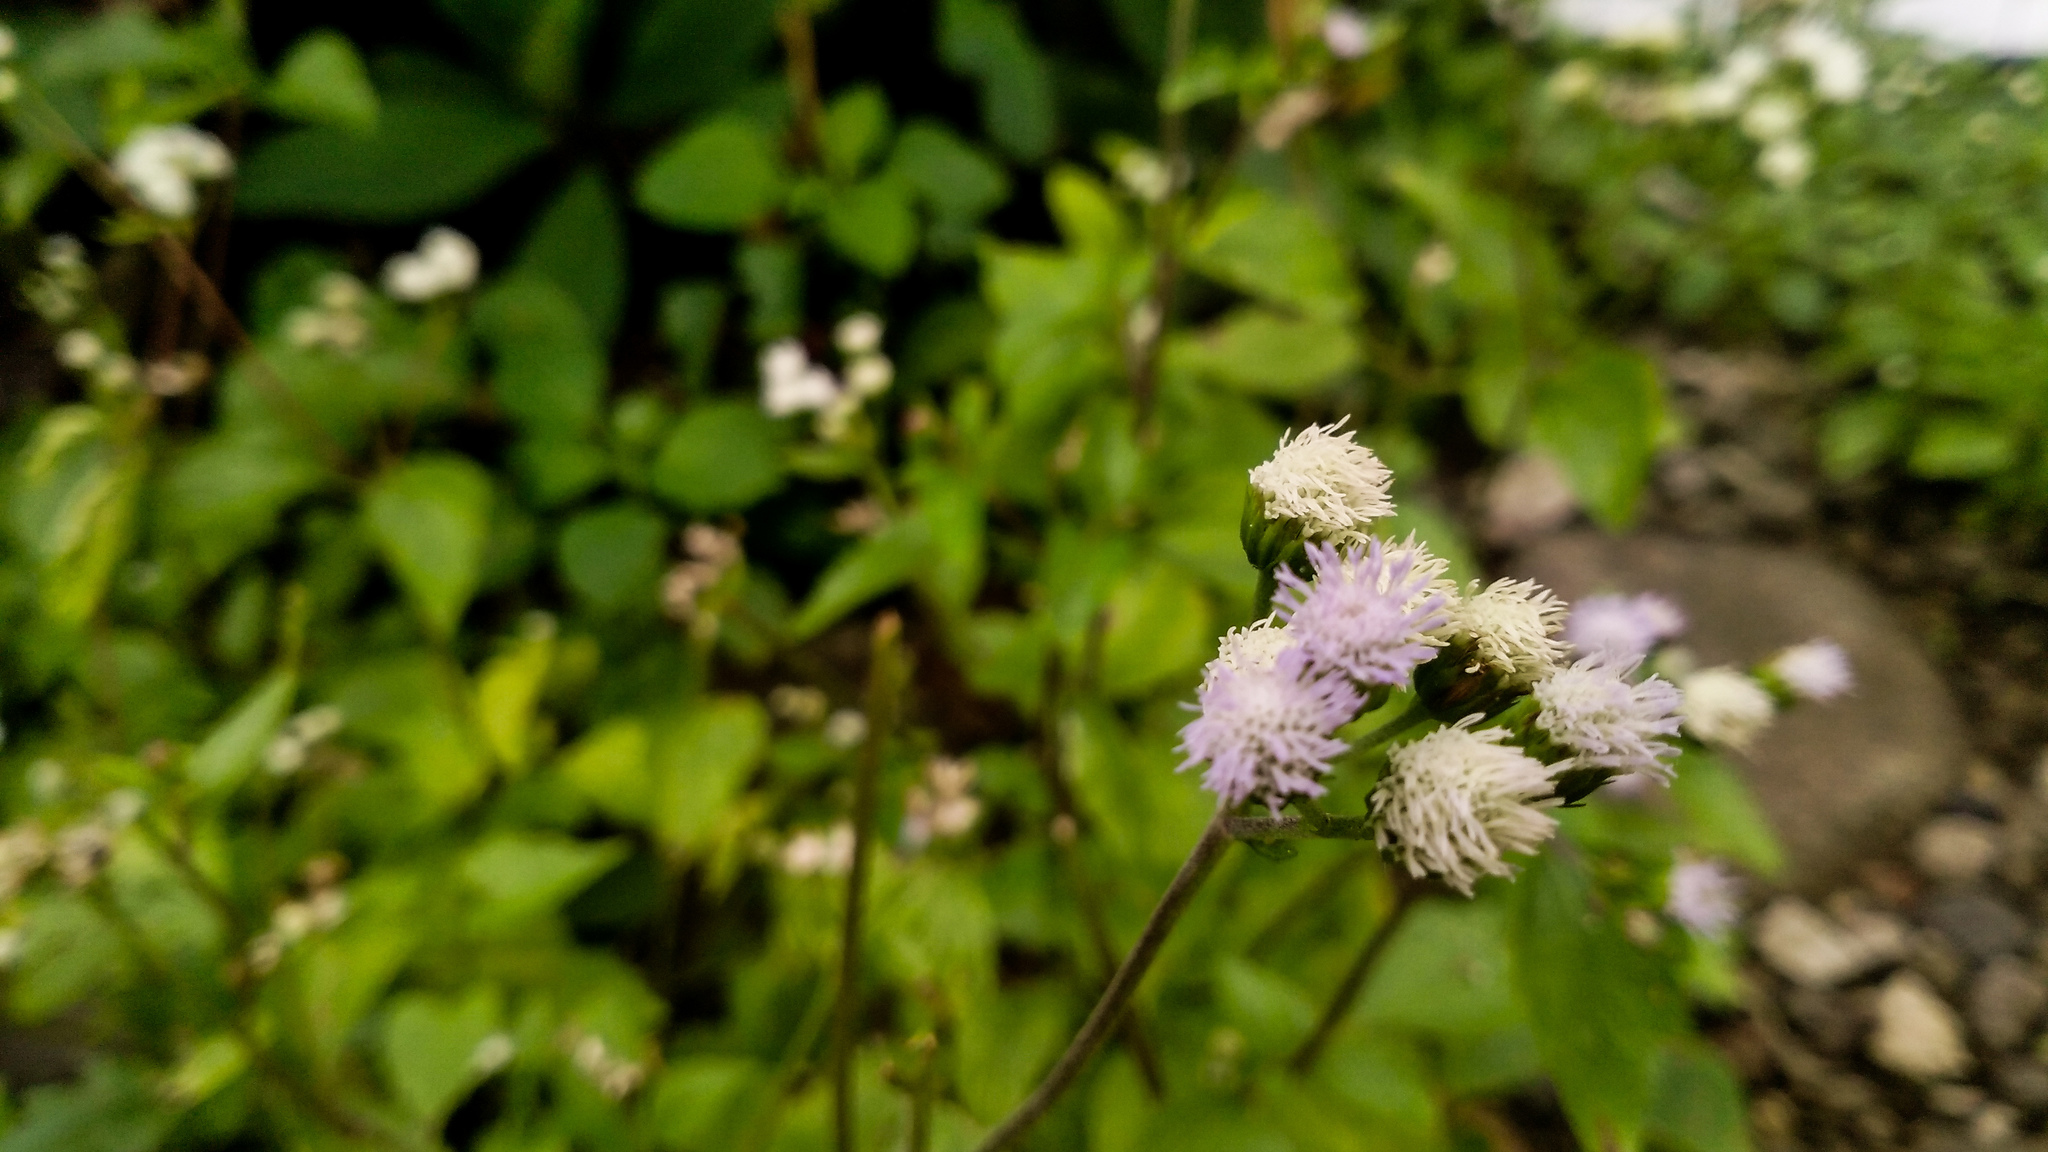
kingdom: Plantae
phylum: Tracheophyta
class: Magnoliopsida
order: Asterales
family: Asteraceae
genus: Ageratum
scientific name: Ageratum conyzoides
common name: Tropical whiteweed
